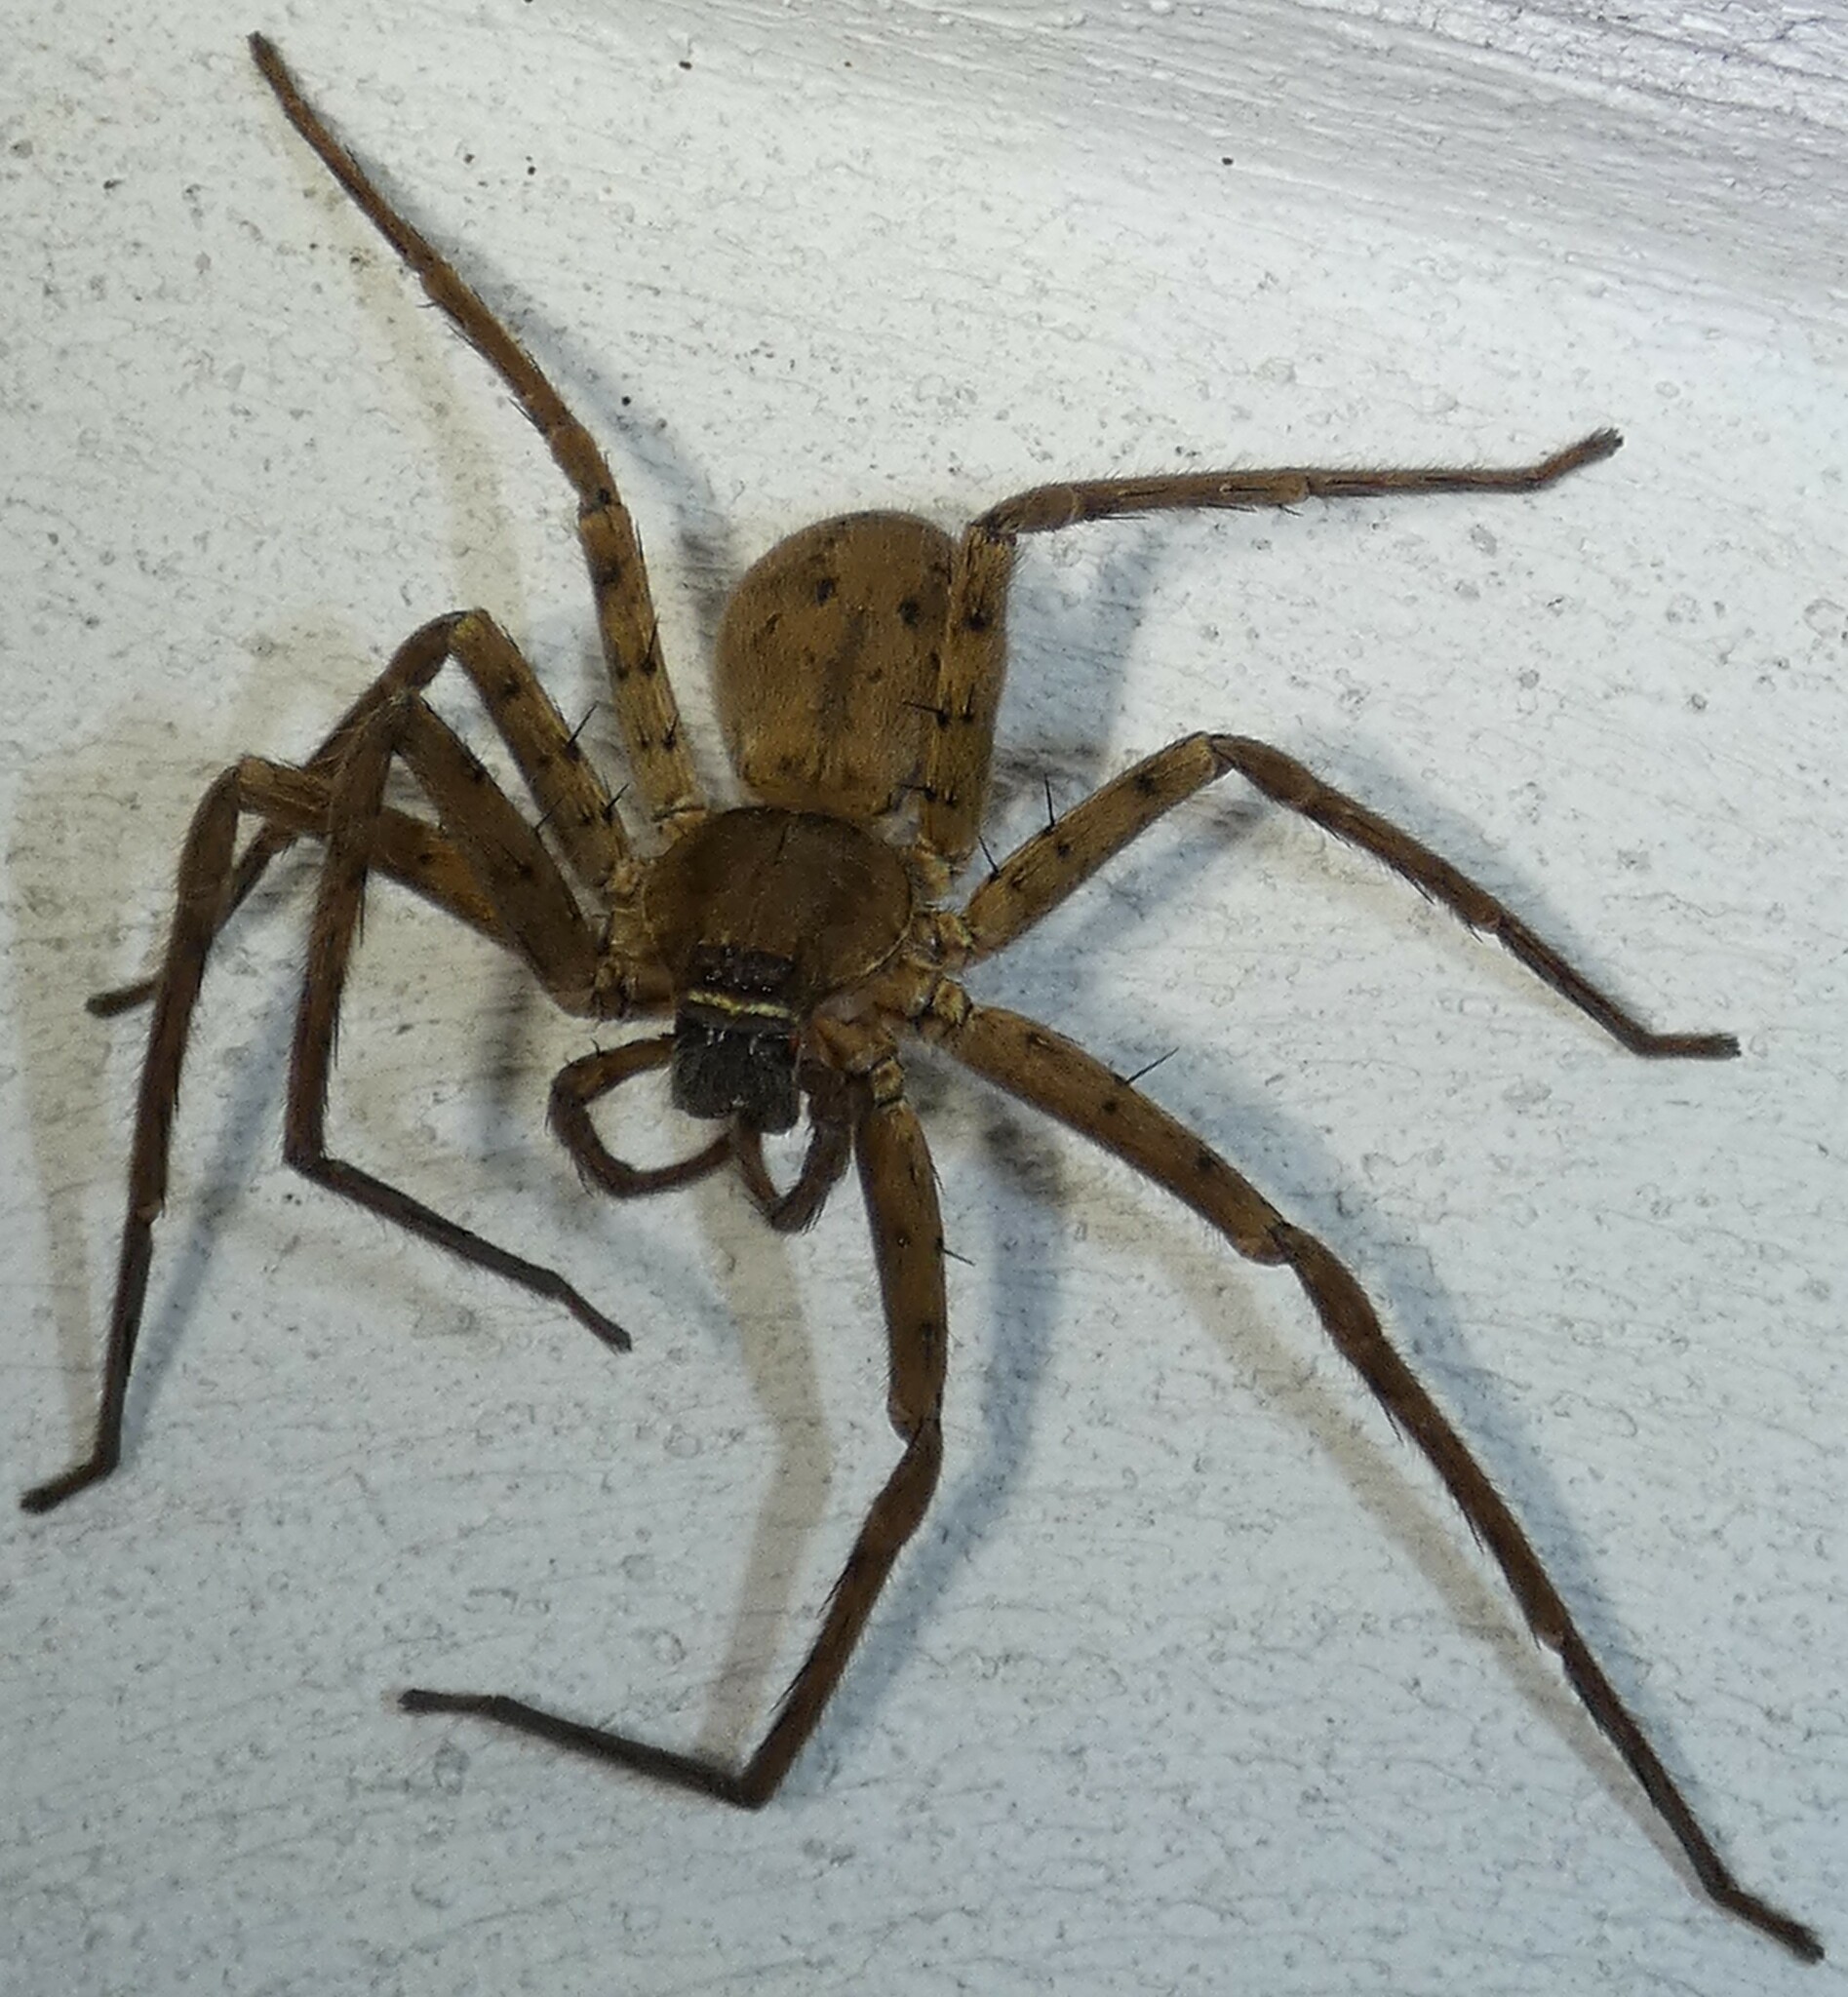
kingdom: Animalia
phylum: Arthropoda
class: Arachnida
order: Araneae
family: Sparassidae
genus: Heteropoda
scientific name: Heteropoda venatoria
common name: Huntsman spider
